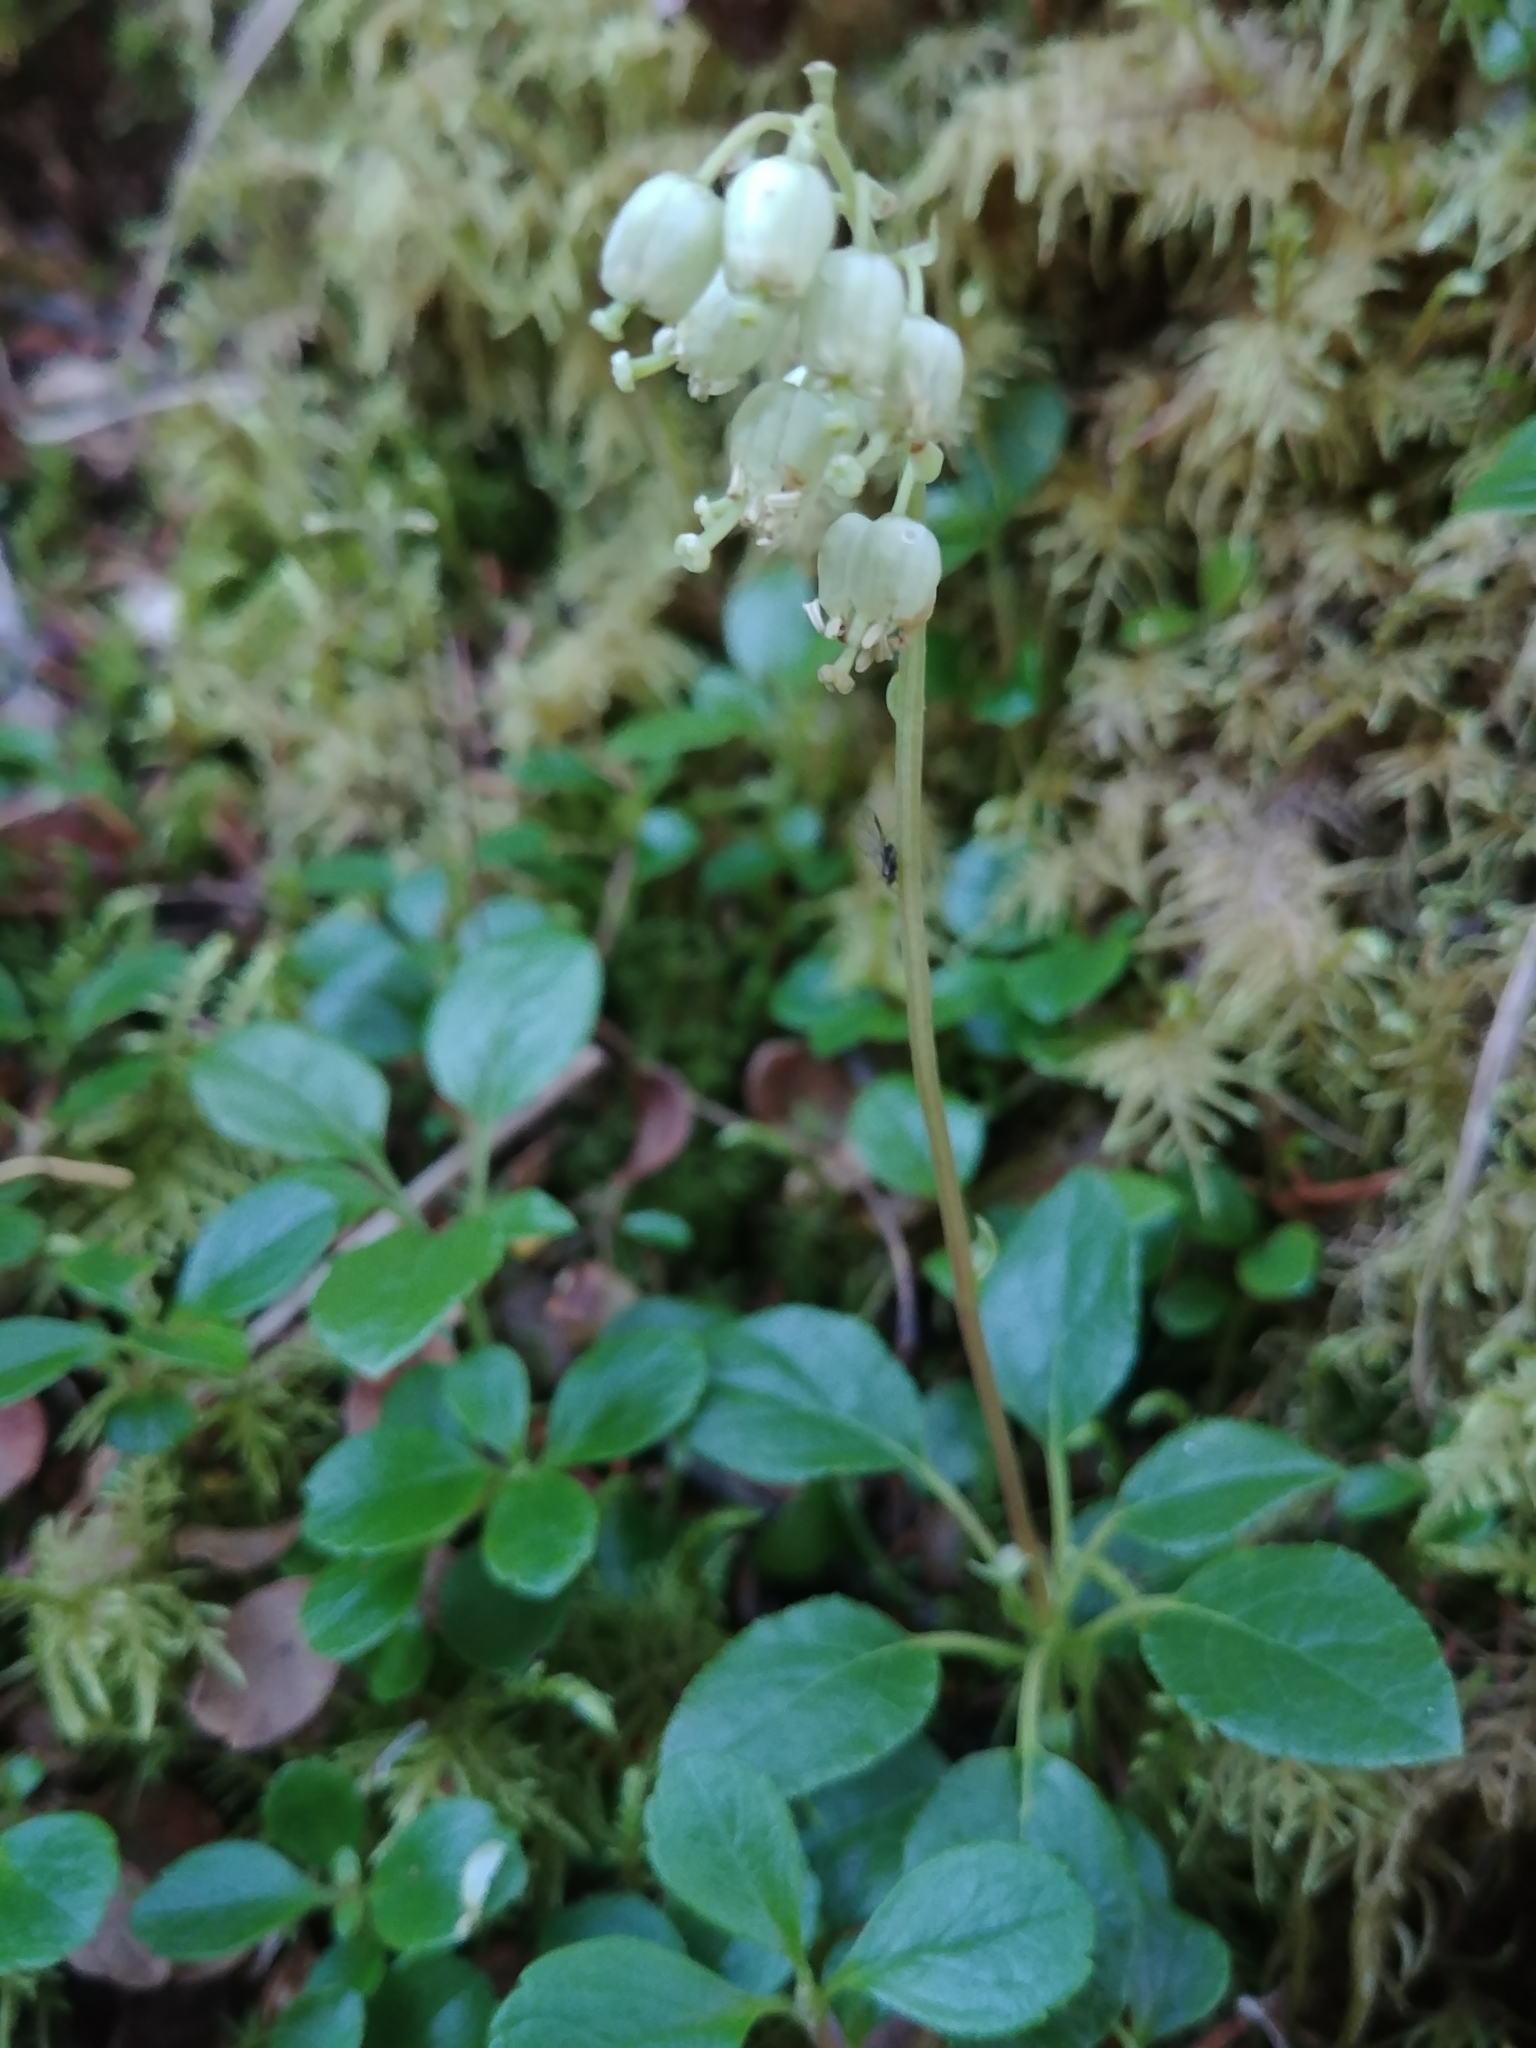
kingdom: Plantae
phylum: Tracheophyta
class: Magnoliopsida
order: Ericales
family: Ericaceae
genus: Orthilia
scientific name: Orthilia secunda
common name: One-sided orthilia
